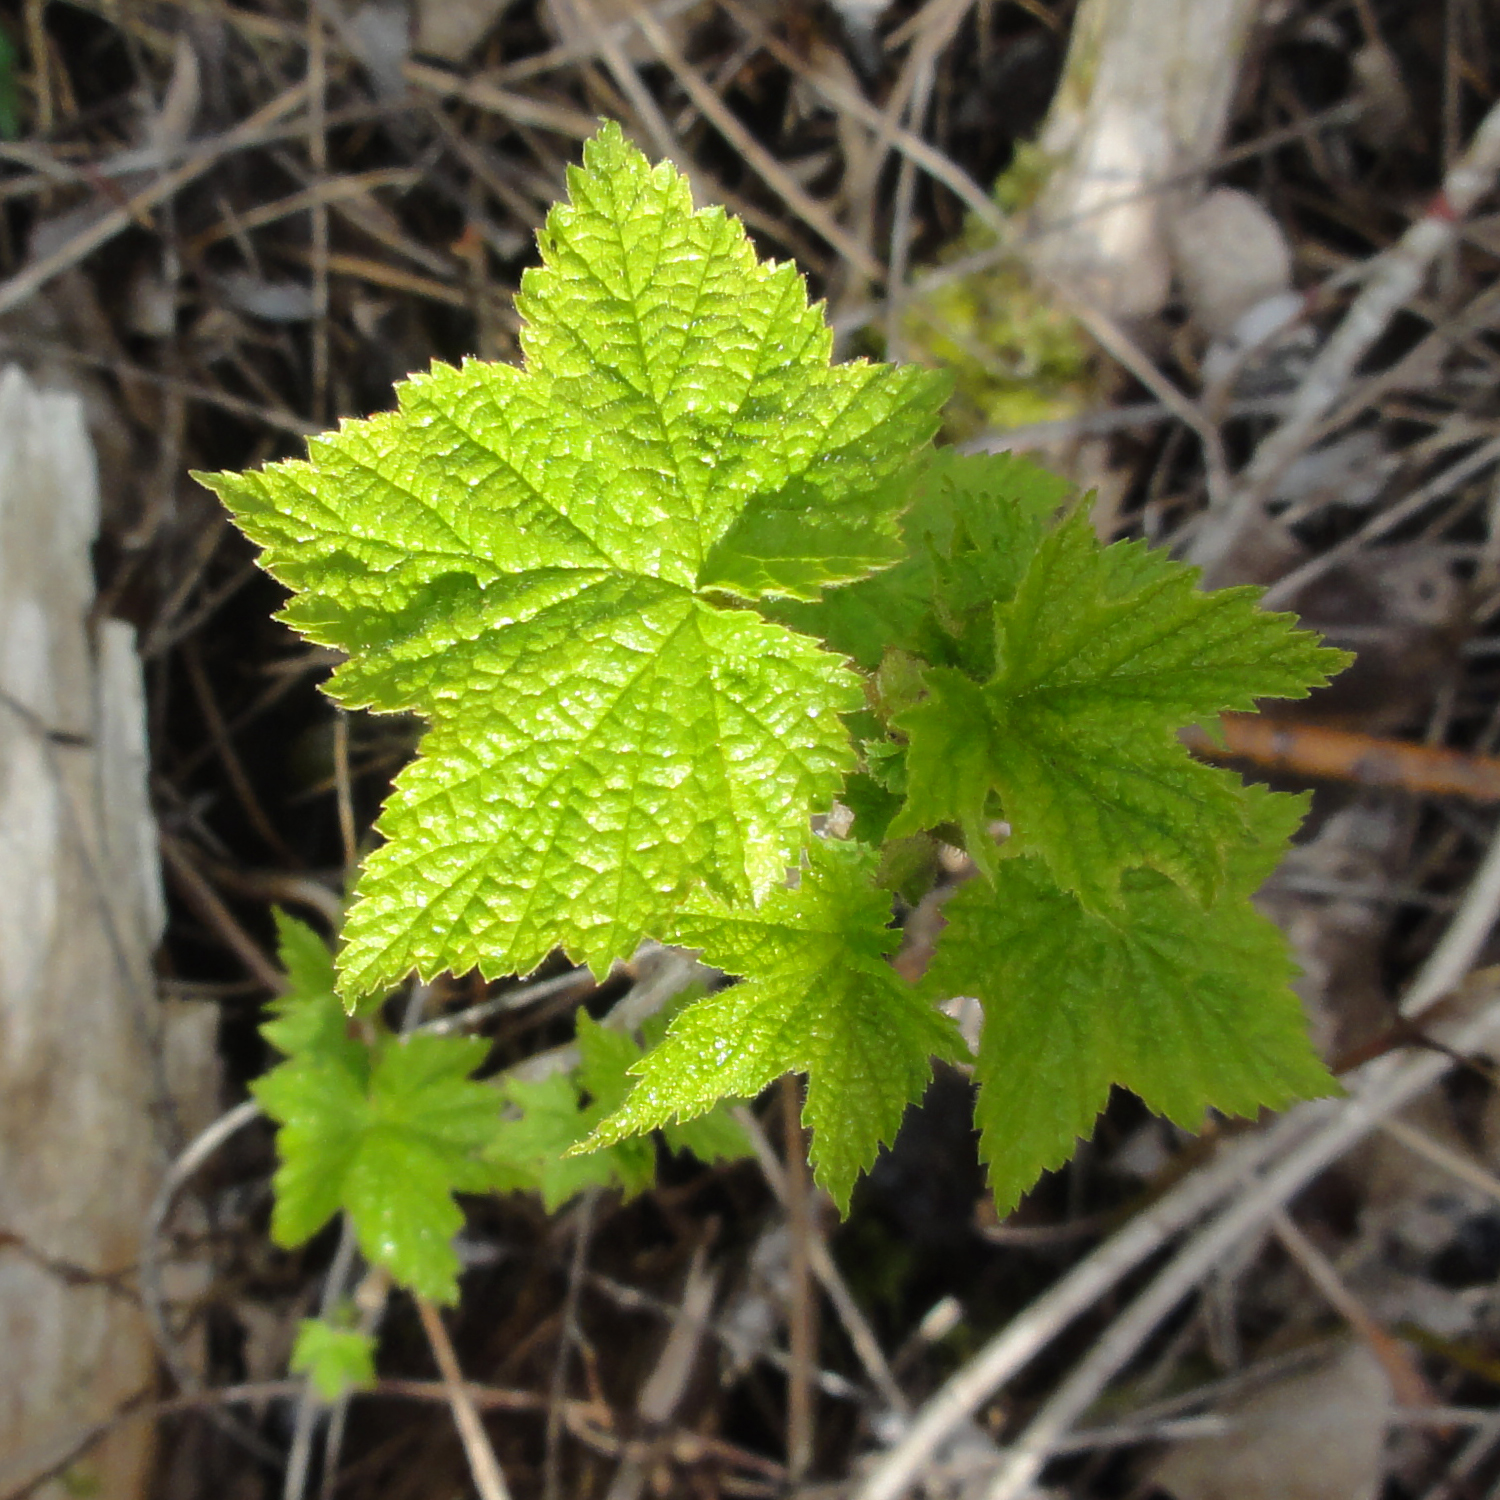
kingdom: Plantae
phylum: Tracheophyta
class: Magnoliopsida
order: Rosales
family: Rosaceae
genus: Rubus
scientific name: Rubus odoratus
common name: Purple-flowered raspberry
